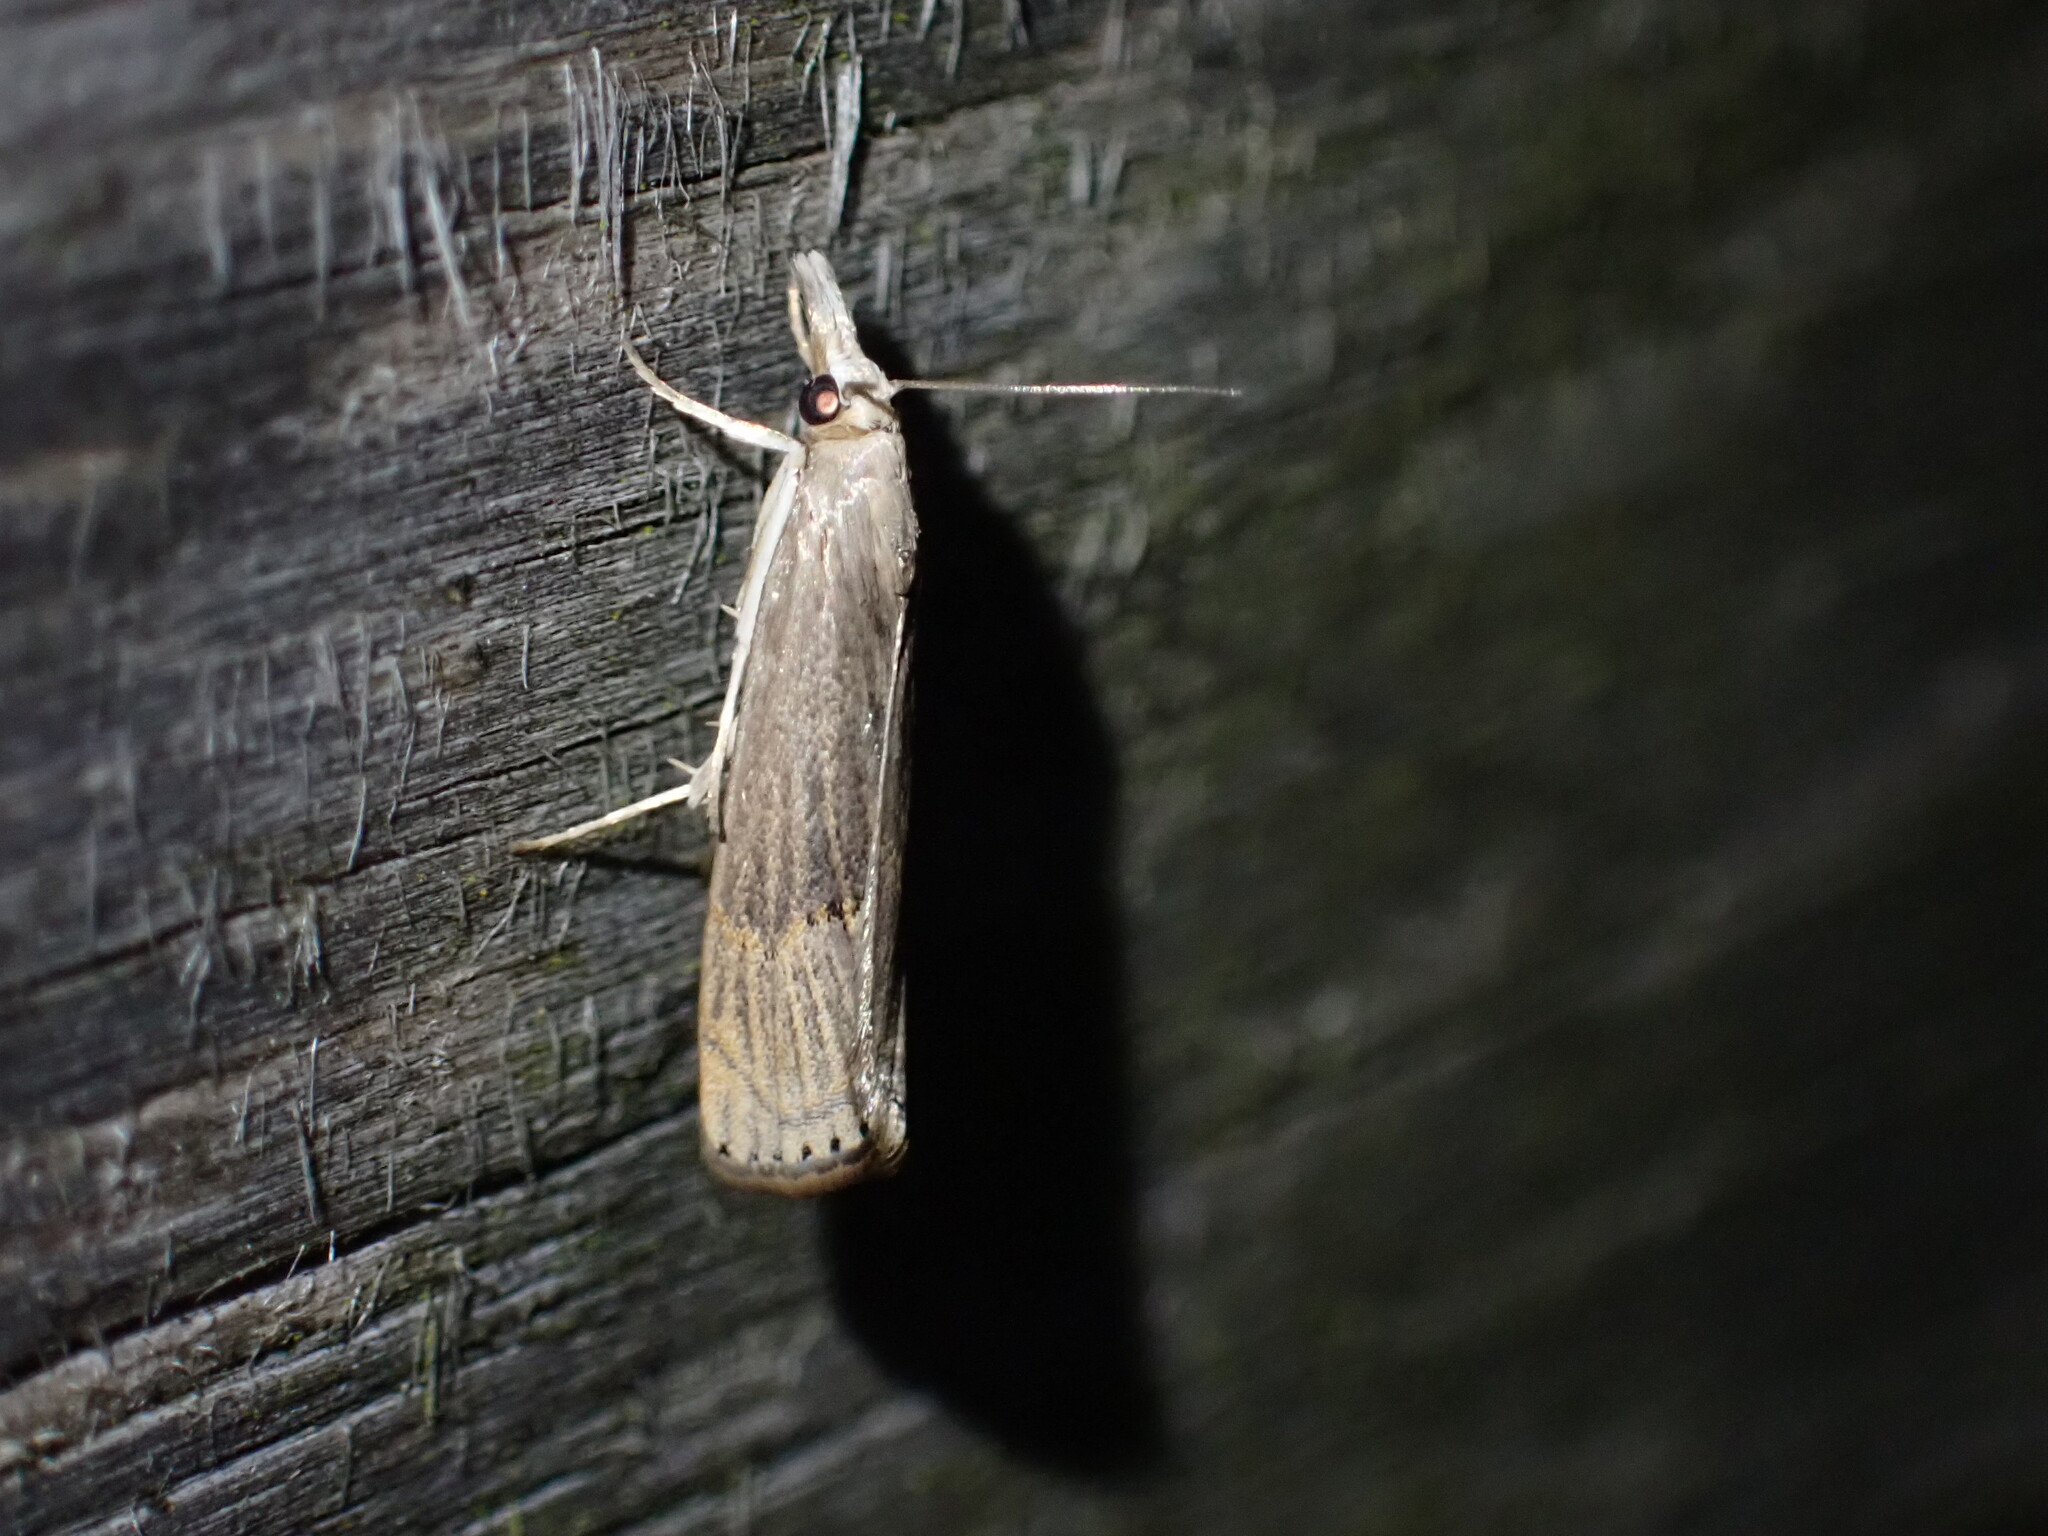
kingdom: Animalia
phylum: Arthropoda
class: Insecta
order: Lepidoptera
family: Crambidae
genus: Parapediasia
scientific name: Parapediasia teterellus
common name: Bluegrass webworm moth
